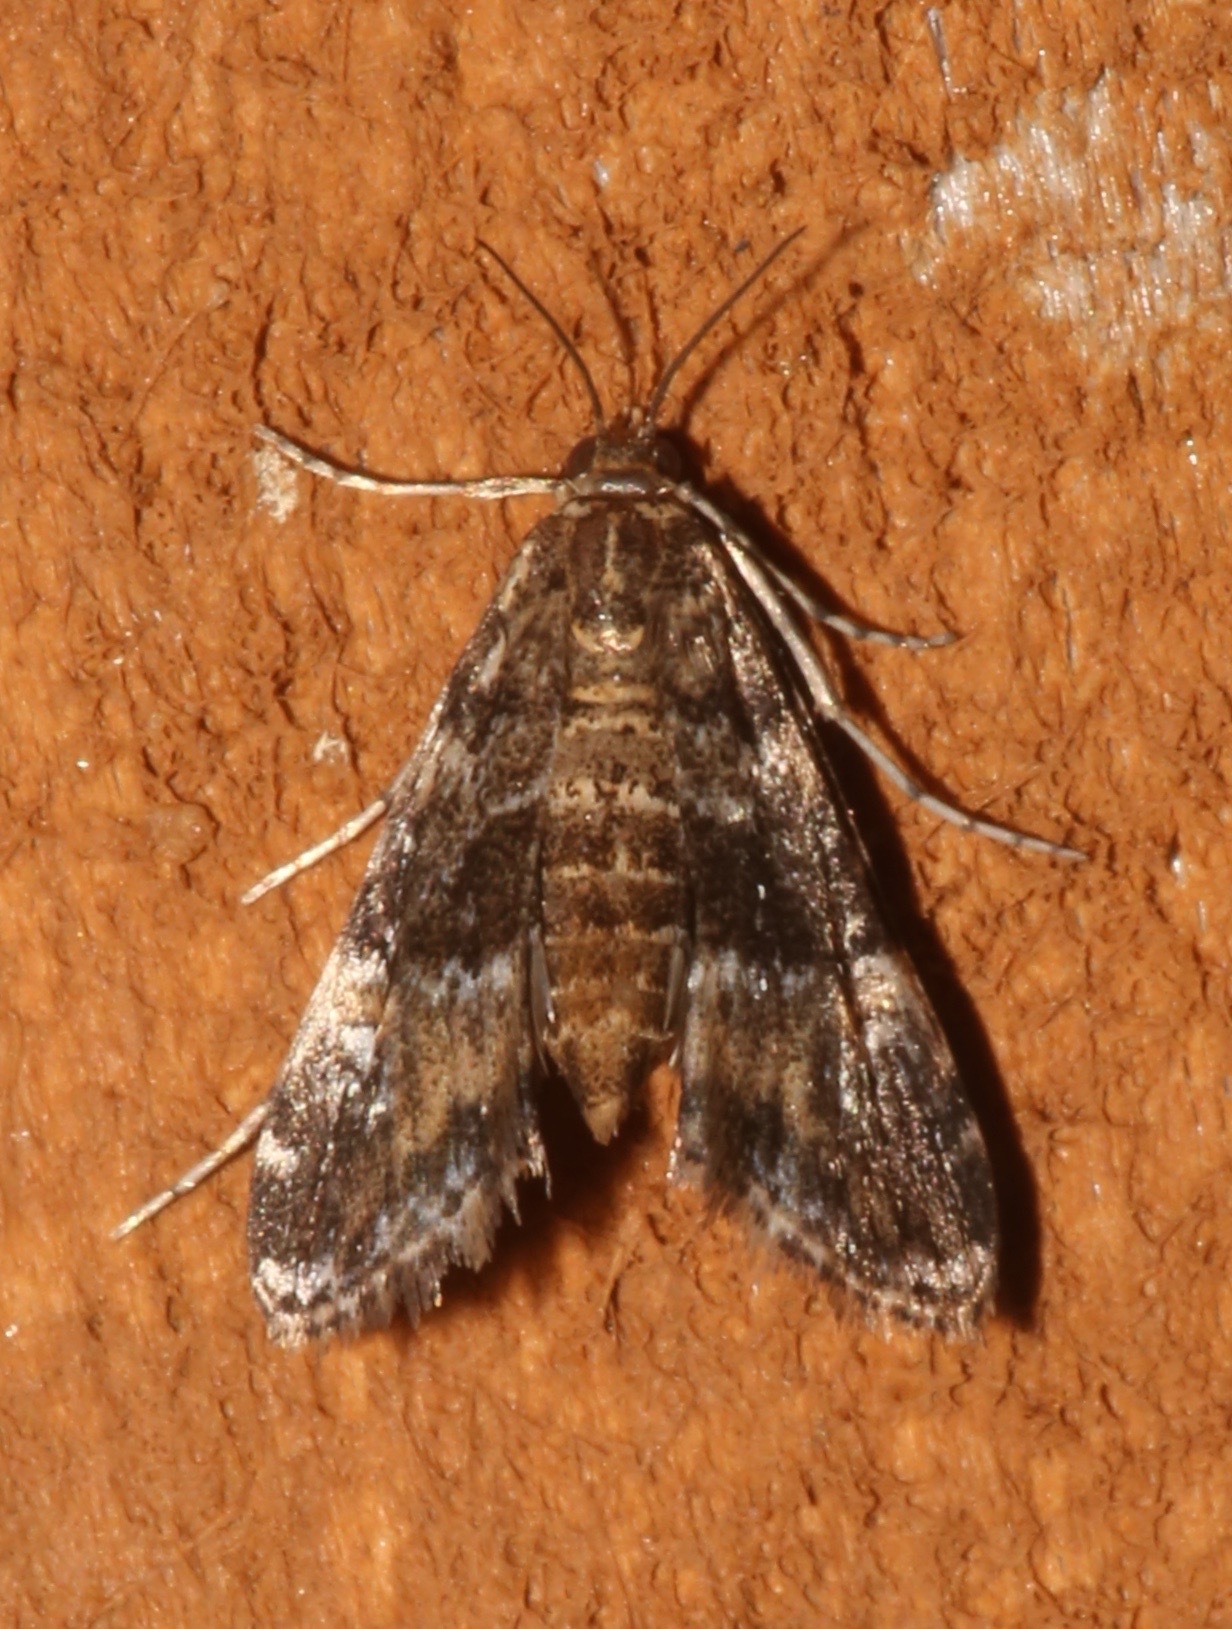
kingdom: Animalia
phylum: Arthropoda
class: Insecta
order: Lepidoptera
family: Crambidae
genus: Elophila
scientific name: Elophila obliteralis
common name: Waterlily leafcutter moth
